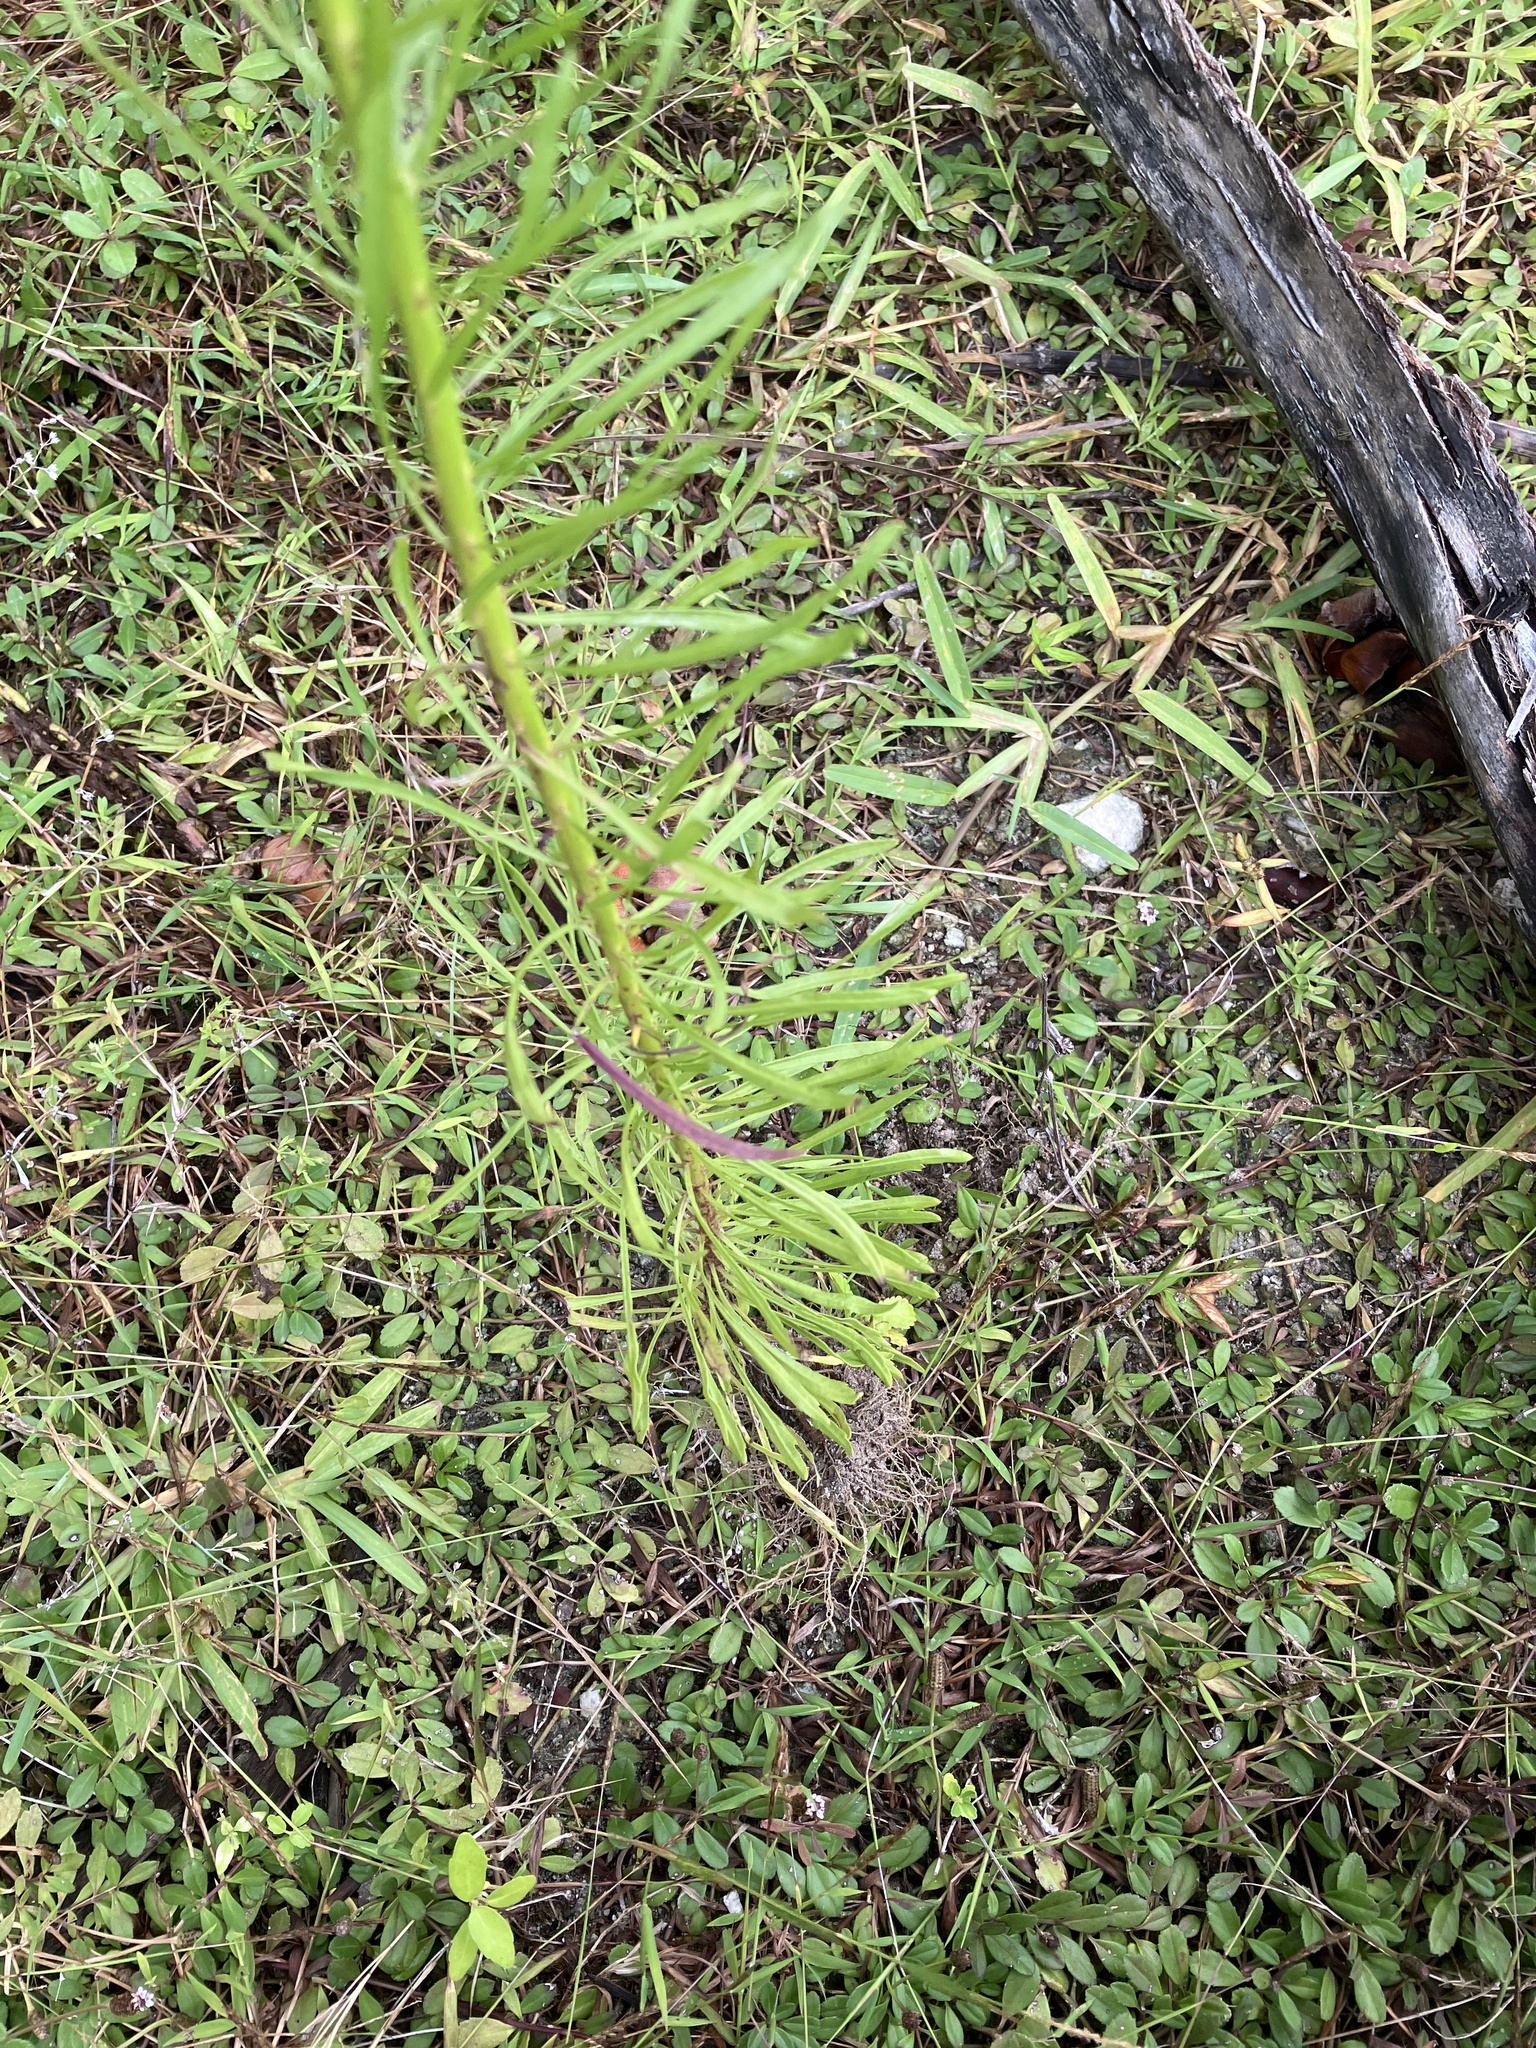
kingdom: Plantae
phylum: Tracheophyta
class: Magnoliopsida
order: Asterales
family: Asteraceae
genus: Erigeron
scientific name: Erigeron canadensis
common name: Canadian fleabane
